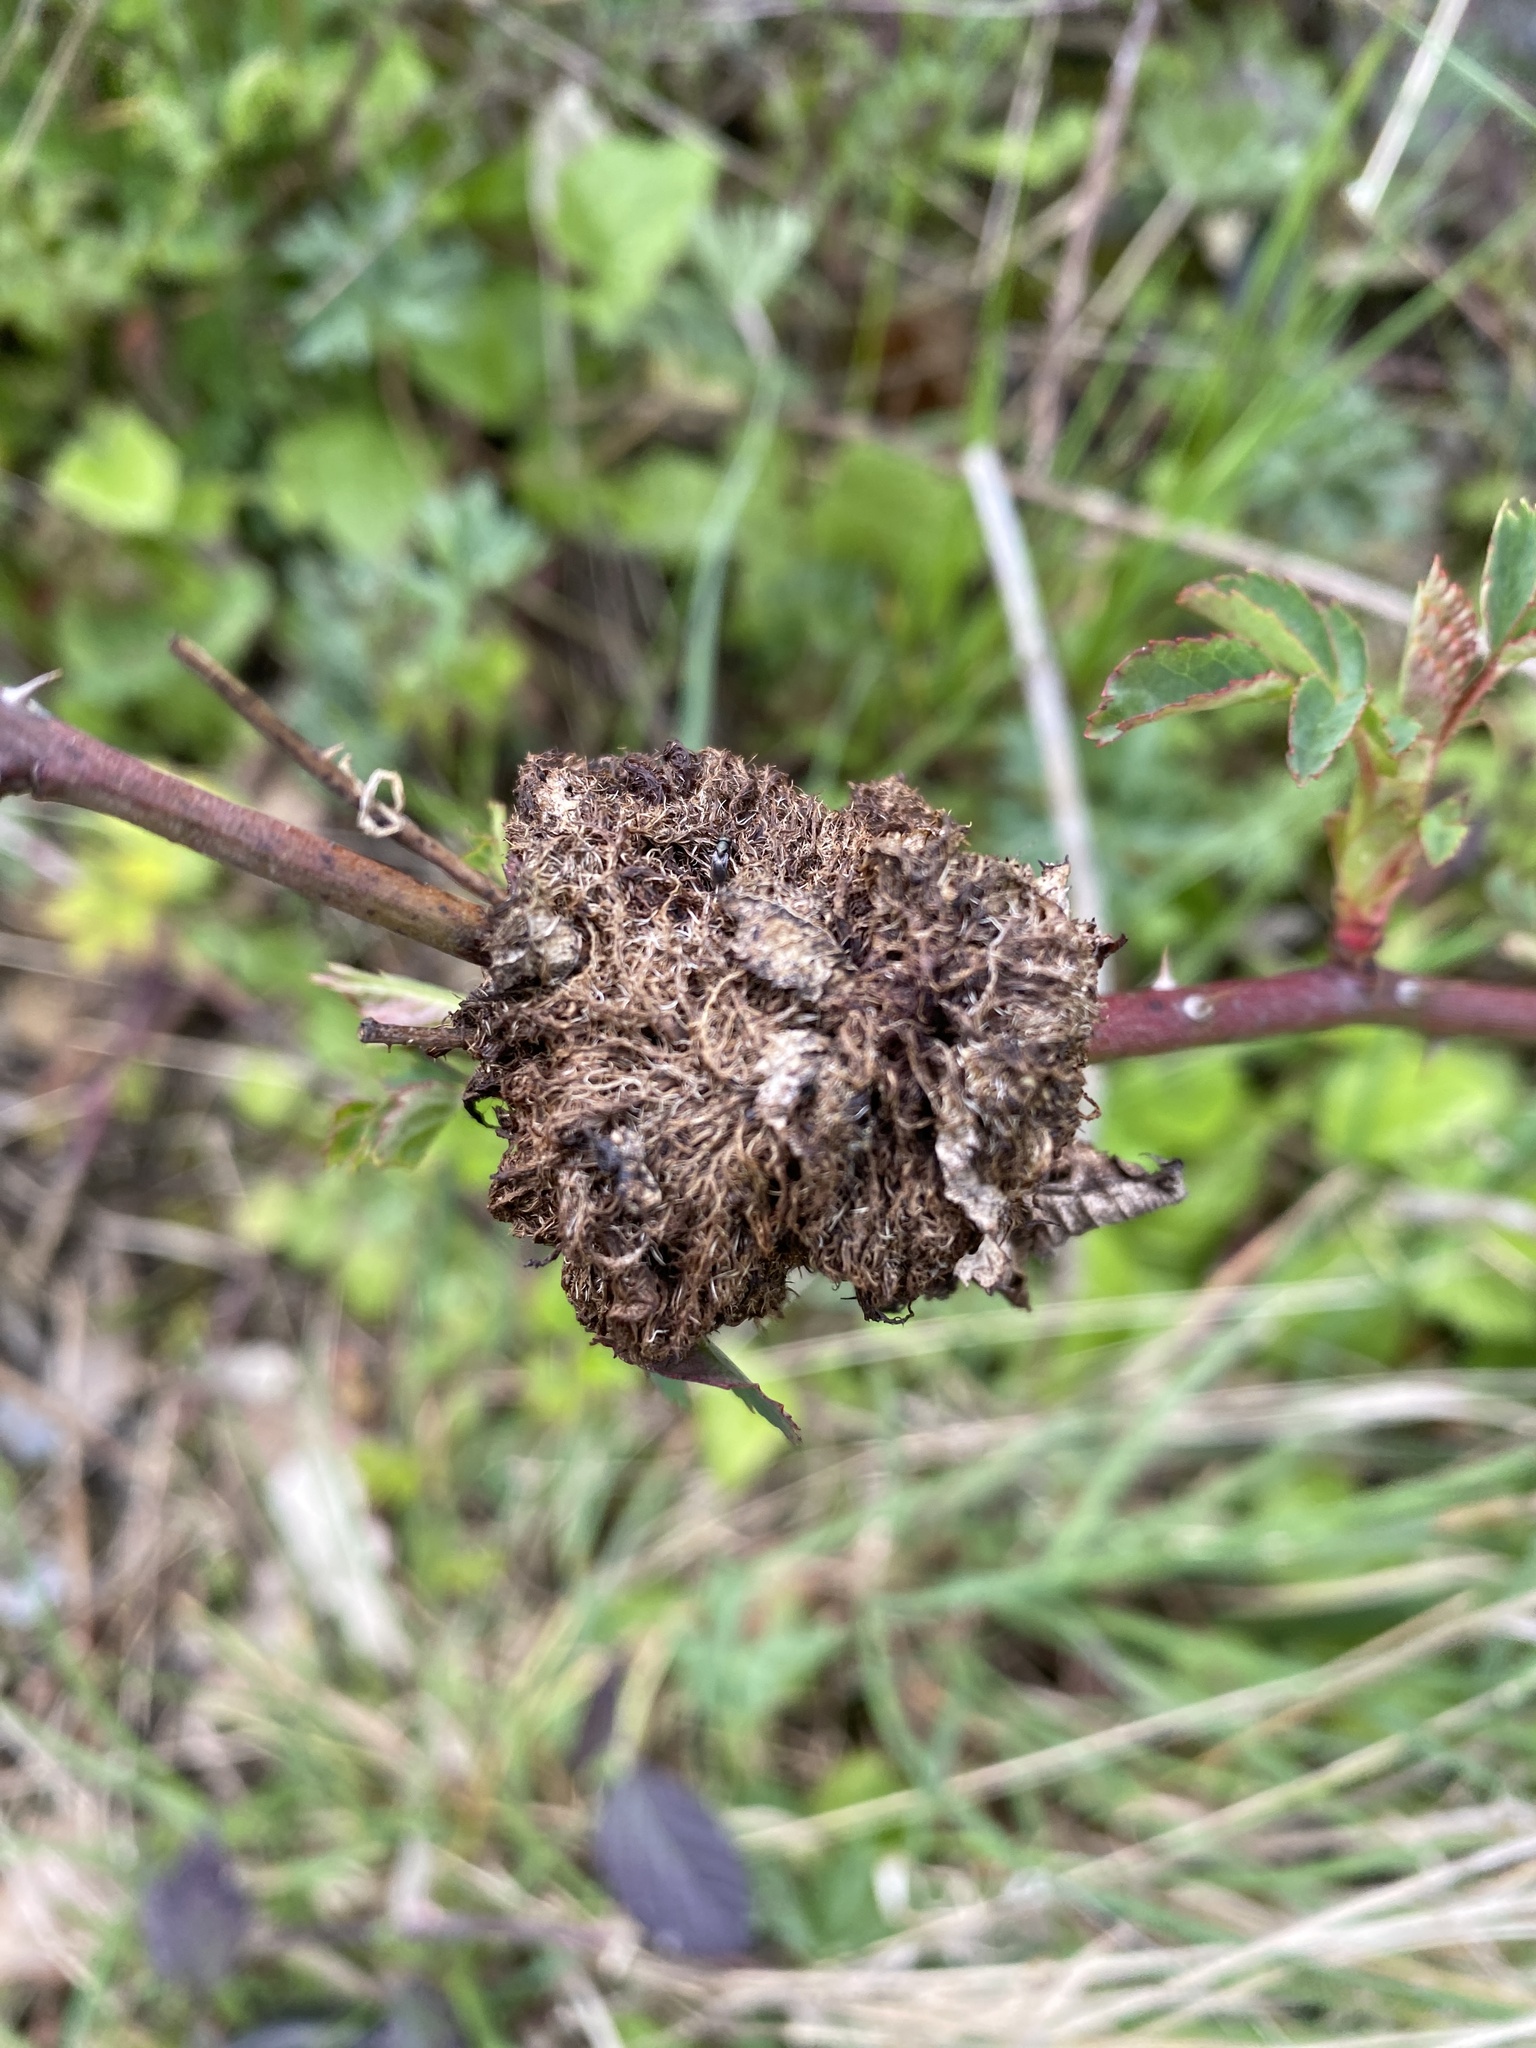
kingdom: Animalia
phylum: Arthropoda
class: Insecta
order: Hymenoptera
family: Cynipidae
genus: Diplolepis
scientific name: Diplolepis rosae
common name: Bedeguar gall
